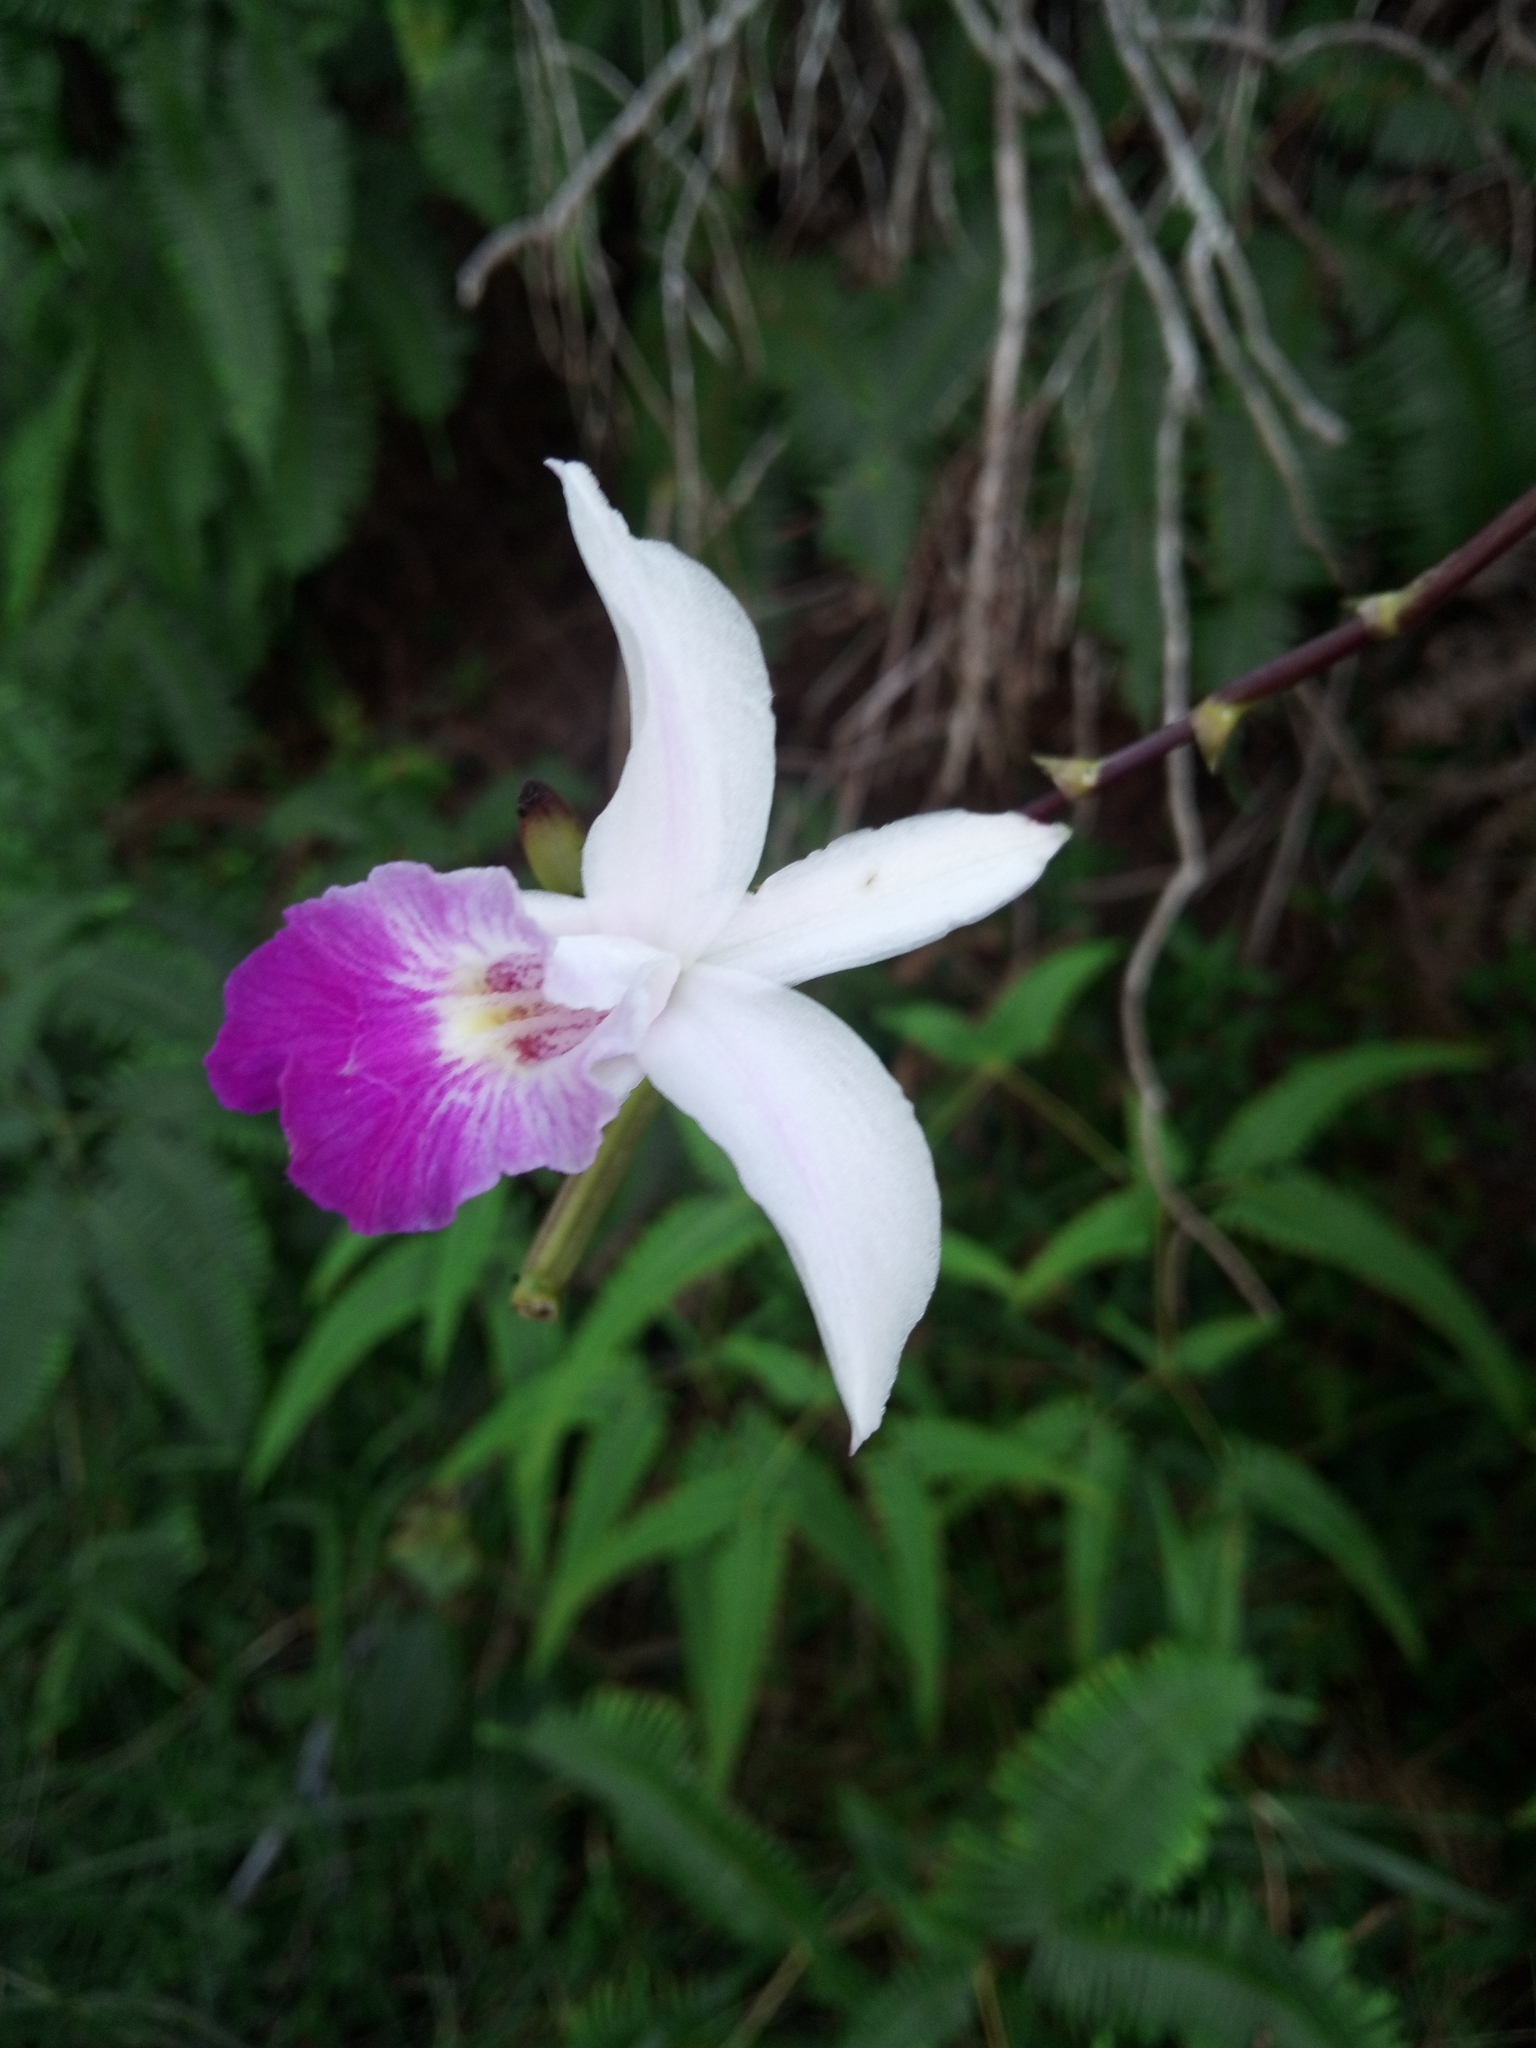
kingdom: Plantae
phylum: Tracheophyta
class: Liliopsida
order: Asparagales
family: Orchidaceae
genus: Arundina
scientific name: Arundina graminifolia
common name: Bamboo orchid
